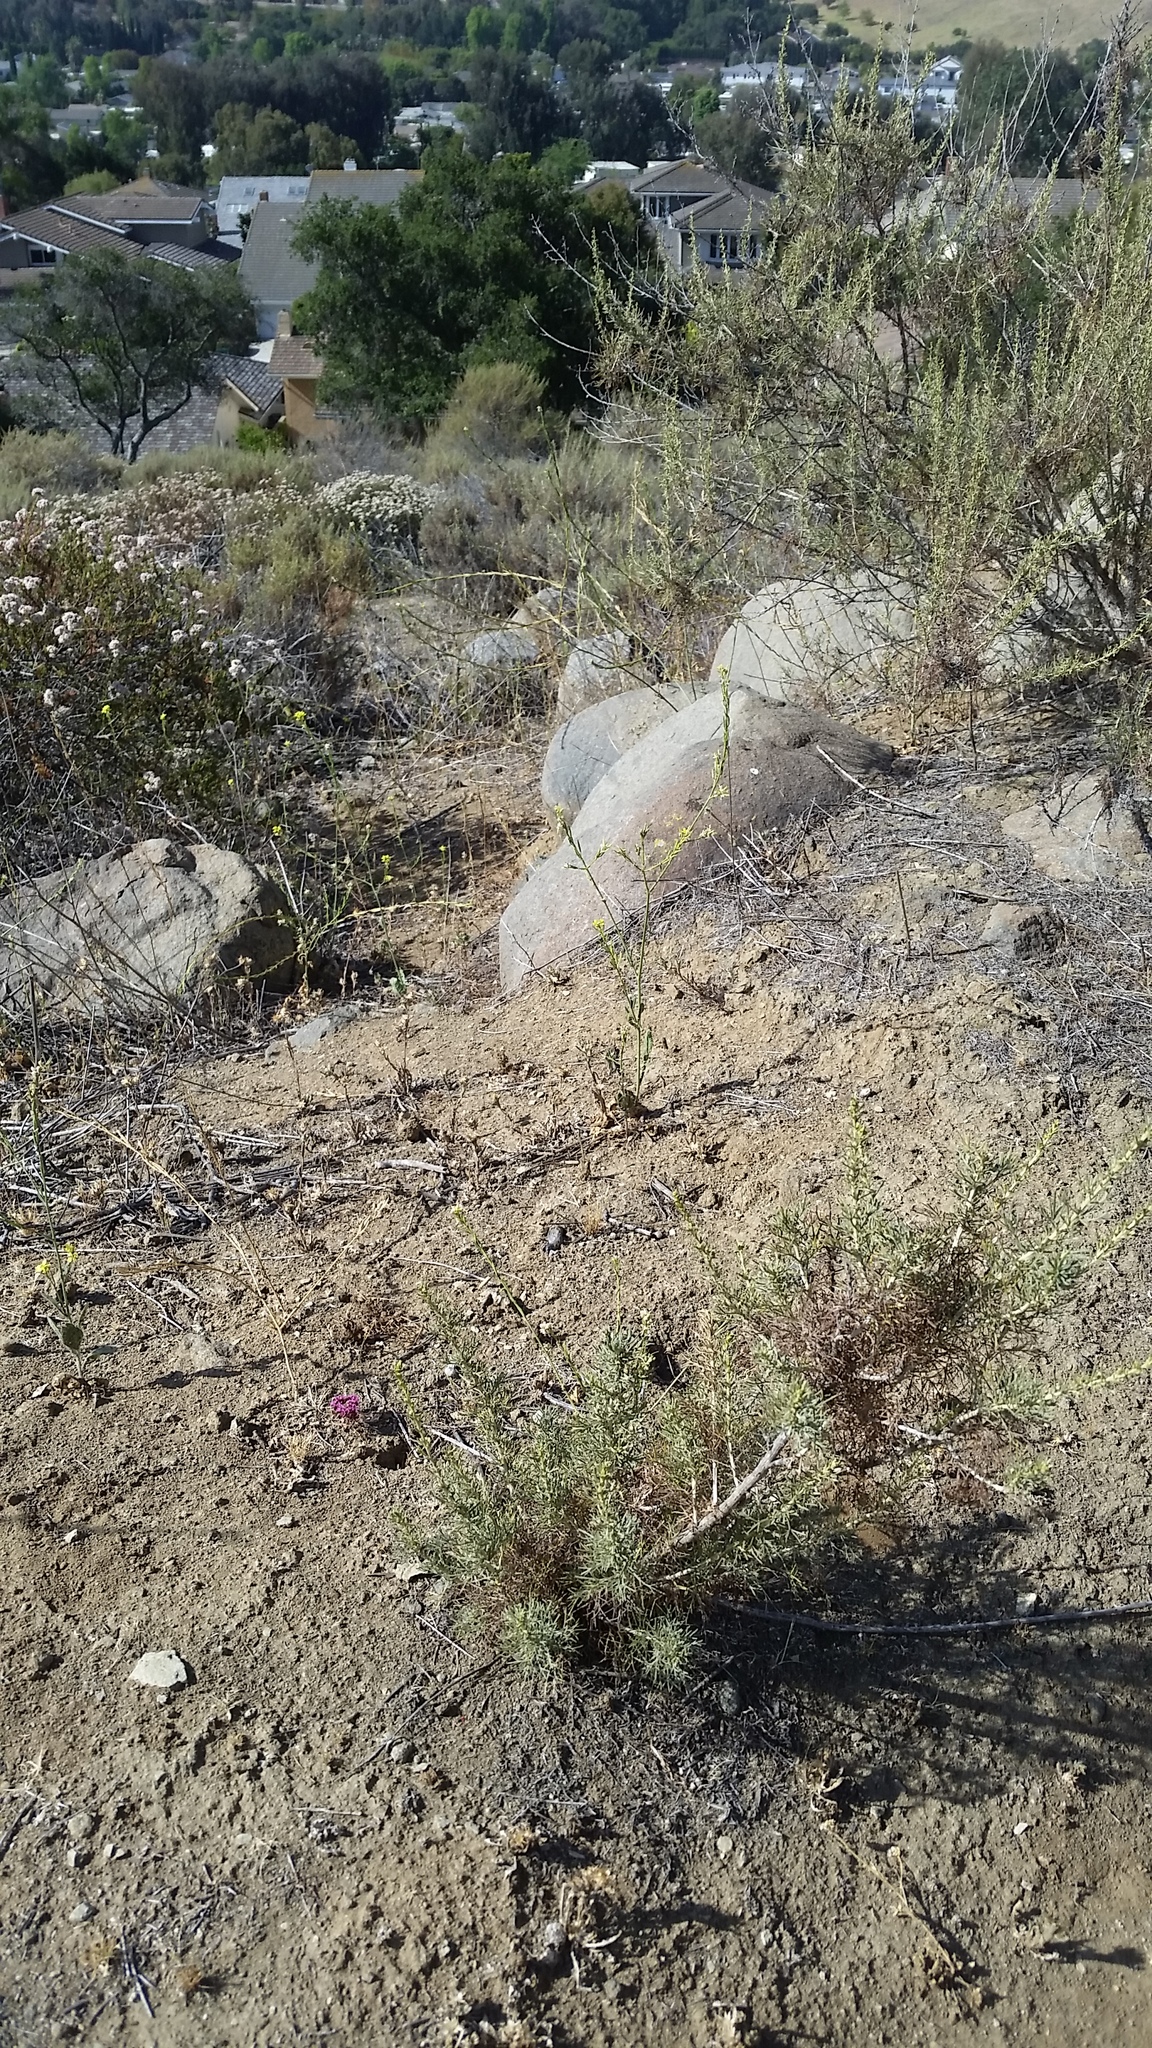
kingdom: Plantae
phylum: Tracheophyta
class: Magnoliopsida
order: Caryophyllales
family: Polygonaceae
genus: Chorizanthe
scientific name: Chorizanthe staticoides
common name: Turkish rugging
